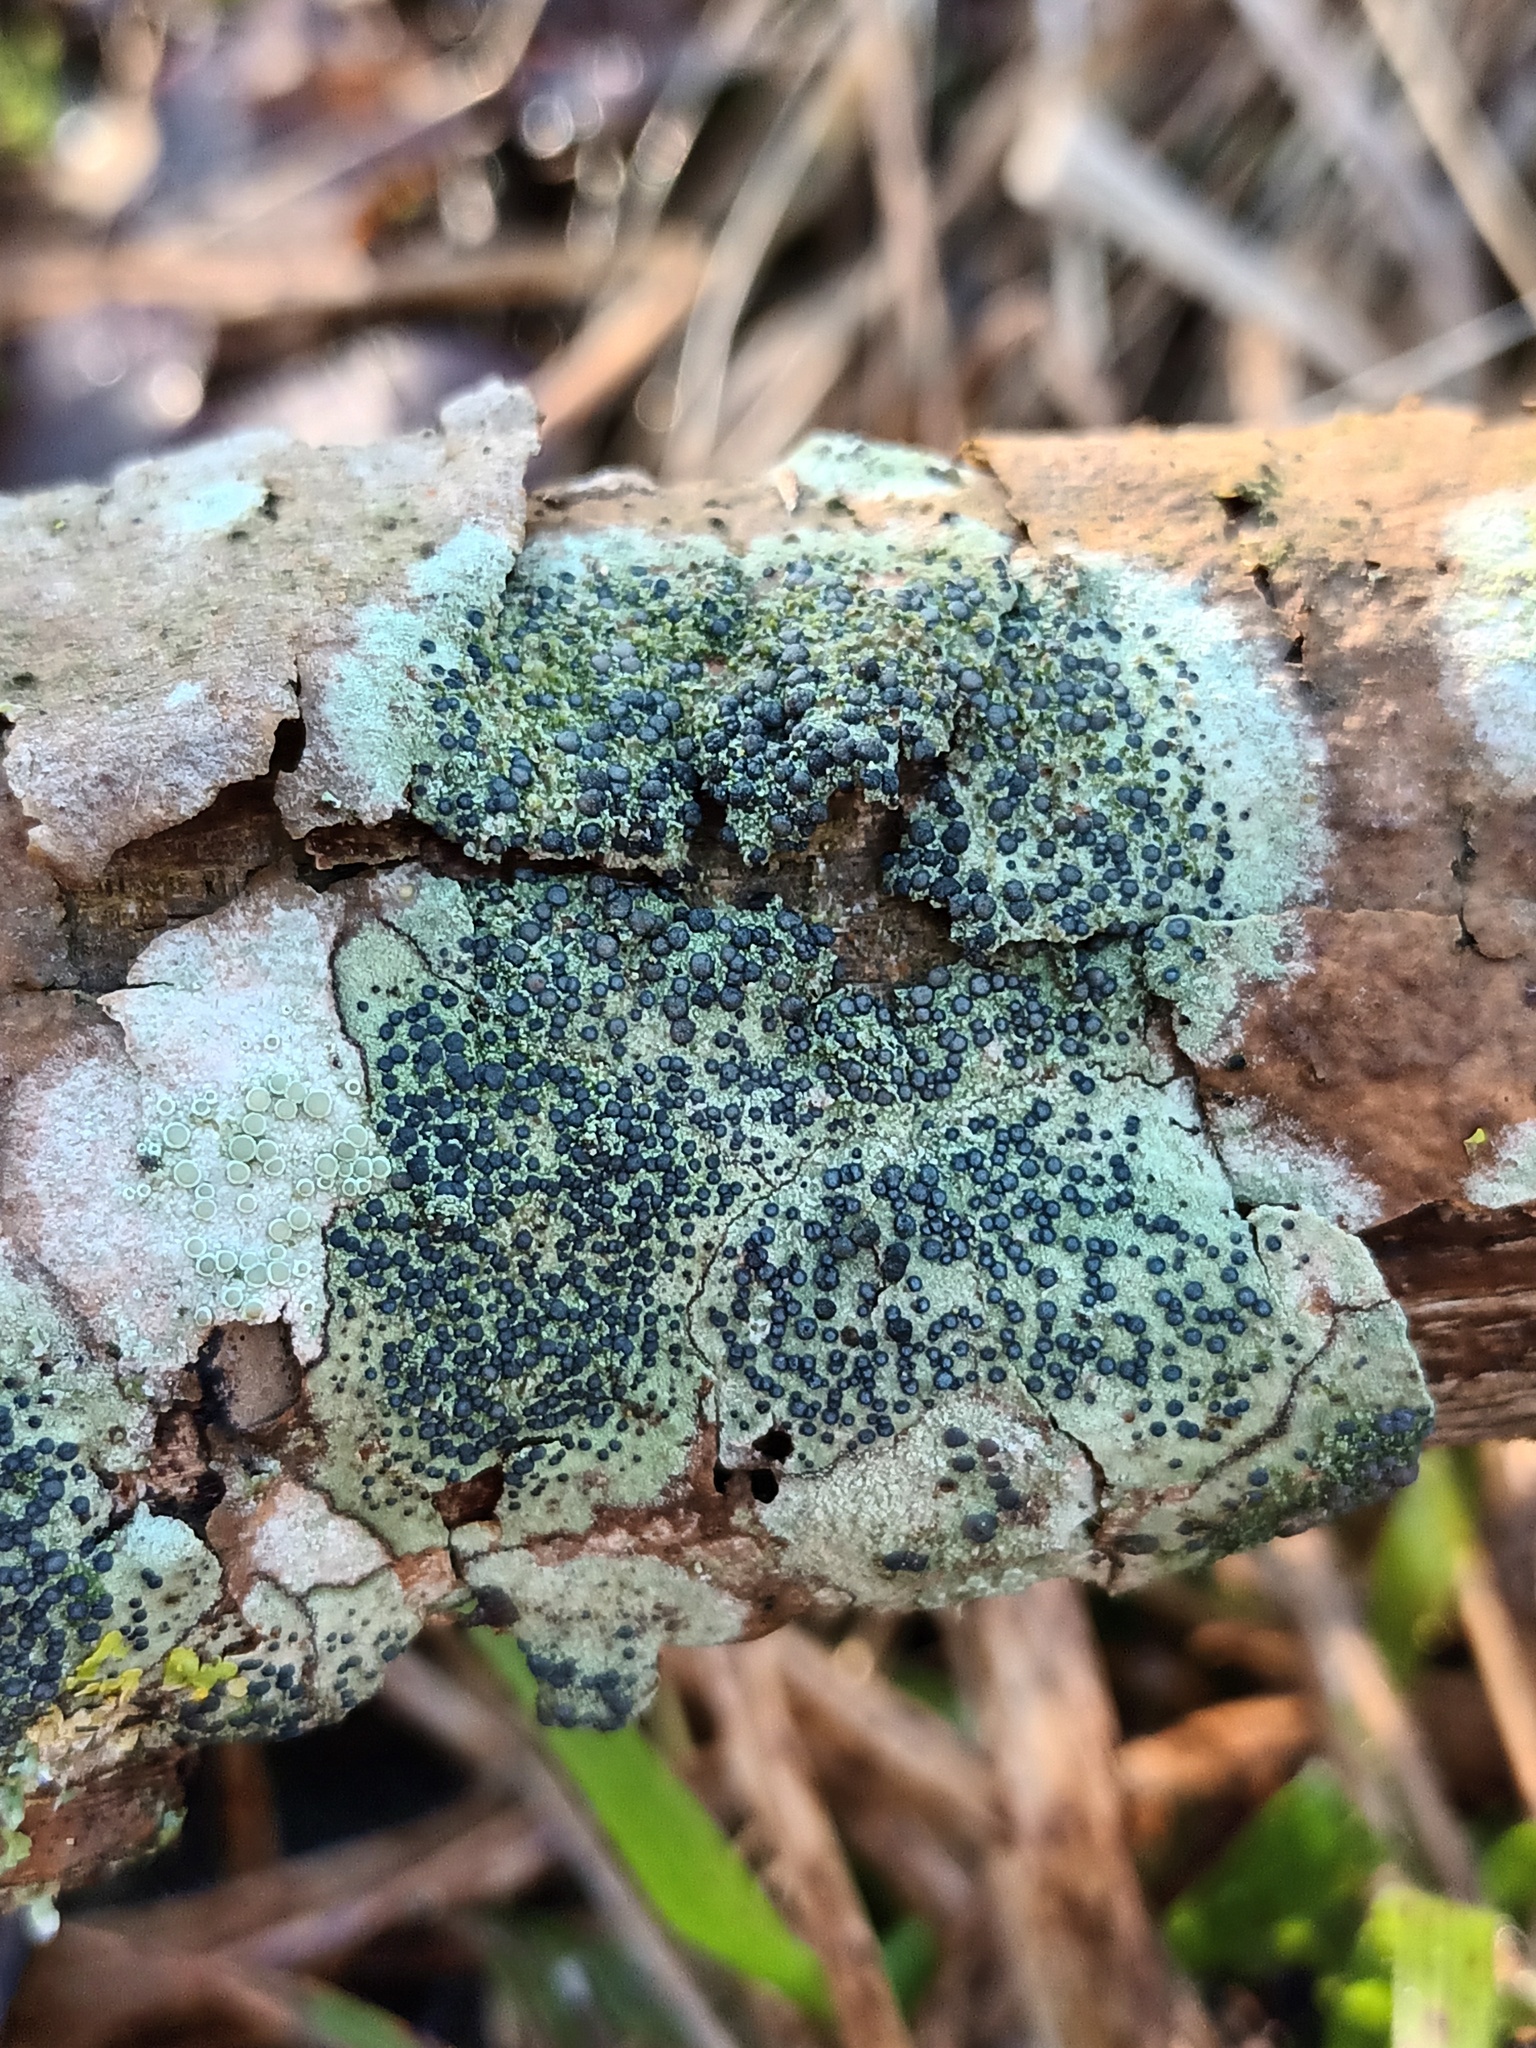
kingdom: Fungi
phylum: Ascomycota
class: Lecanoromycetes
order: Lecanorales
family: Lecanoraceae
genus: Lecidella
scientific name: Lecidella elaeochroma
